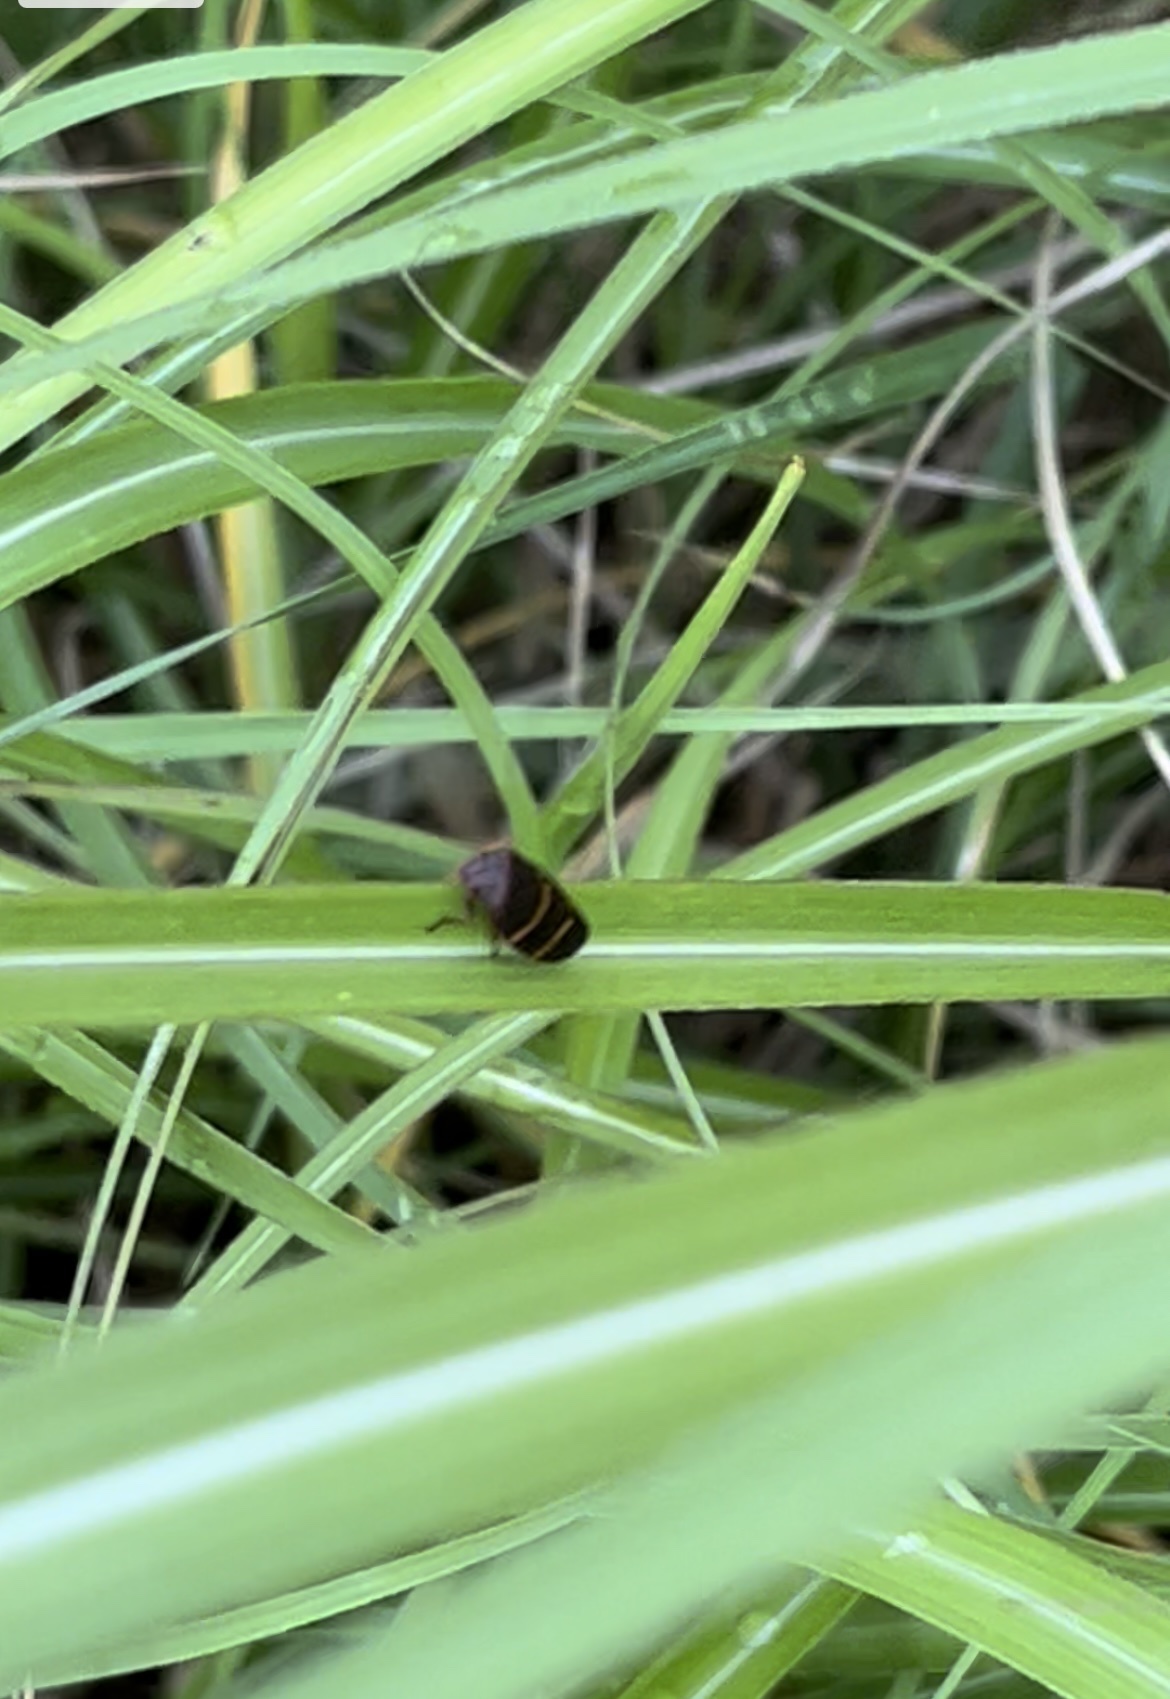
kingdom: Animalia
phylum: Arthropoda
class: Insecta
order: Hemiptera
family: Cercopidae
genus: Prosapia
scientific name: Prosapia bicincta
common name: Twolined spittlebug
